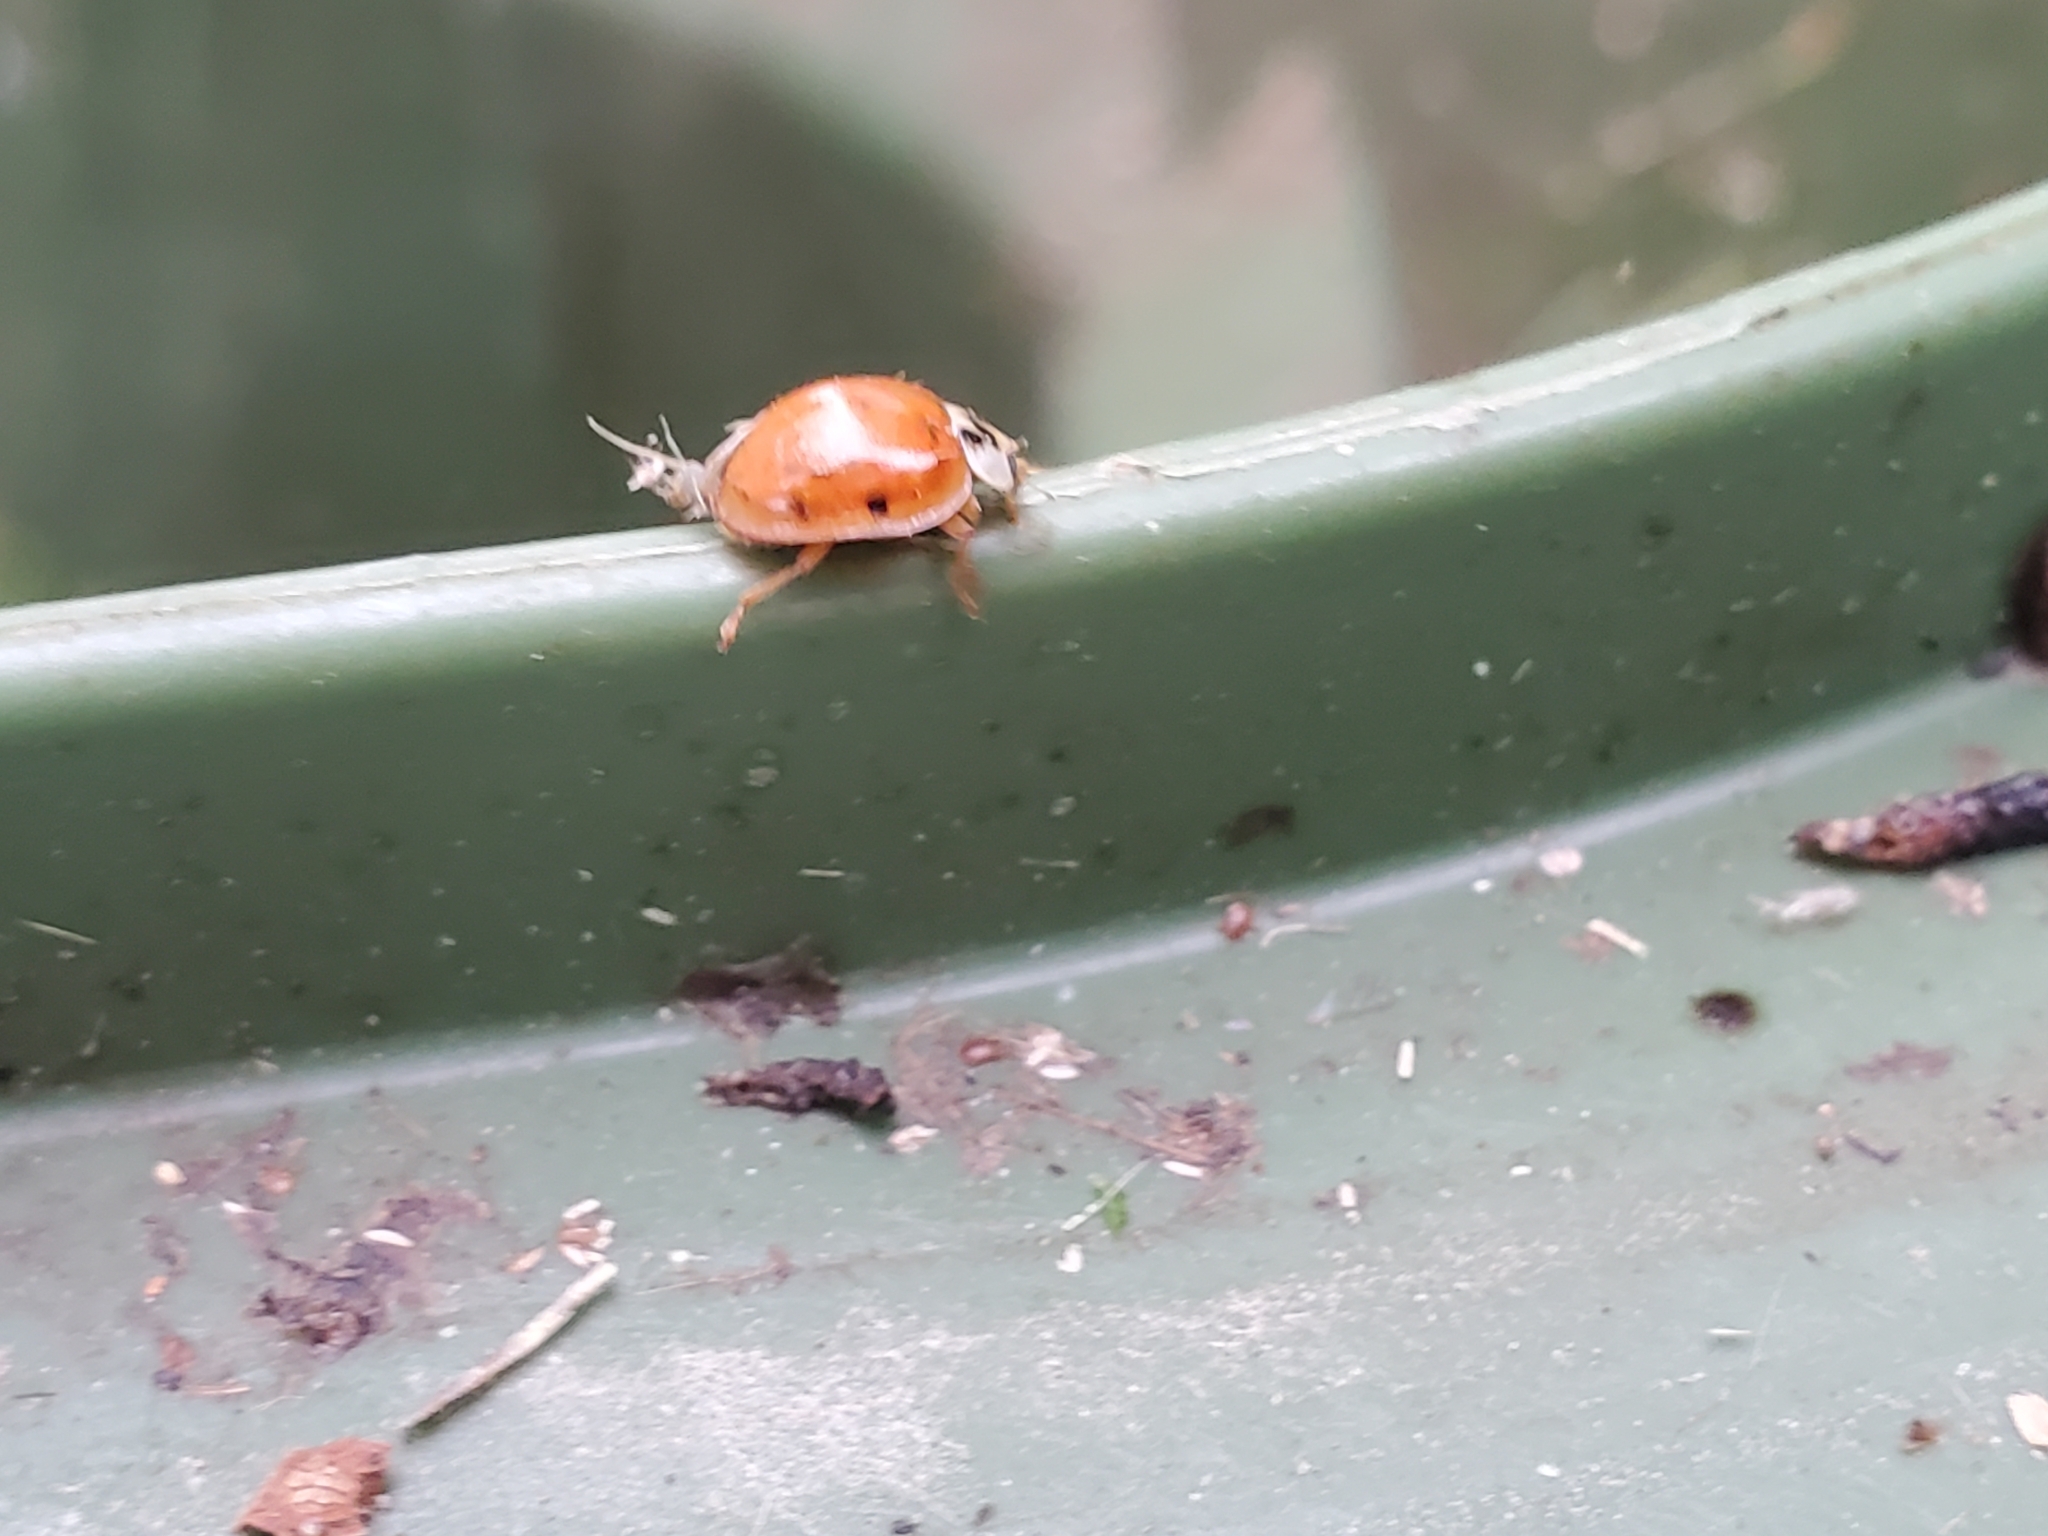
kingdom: Animalia
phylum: Arthropoda
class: Insecta
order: Coleoptera
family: Coccinellidae
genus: Harmonia
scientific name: Harmonia axyridis
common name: Harlequin ladybird
